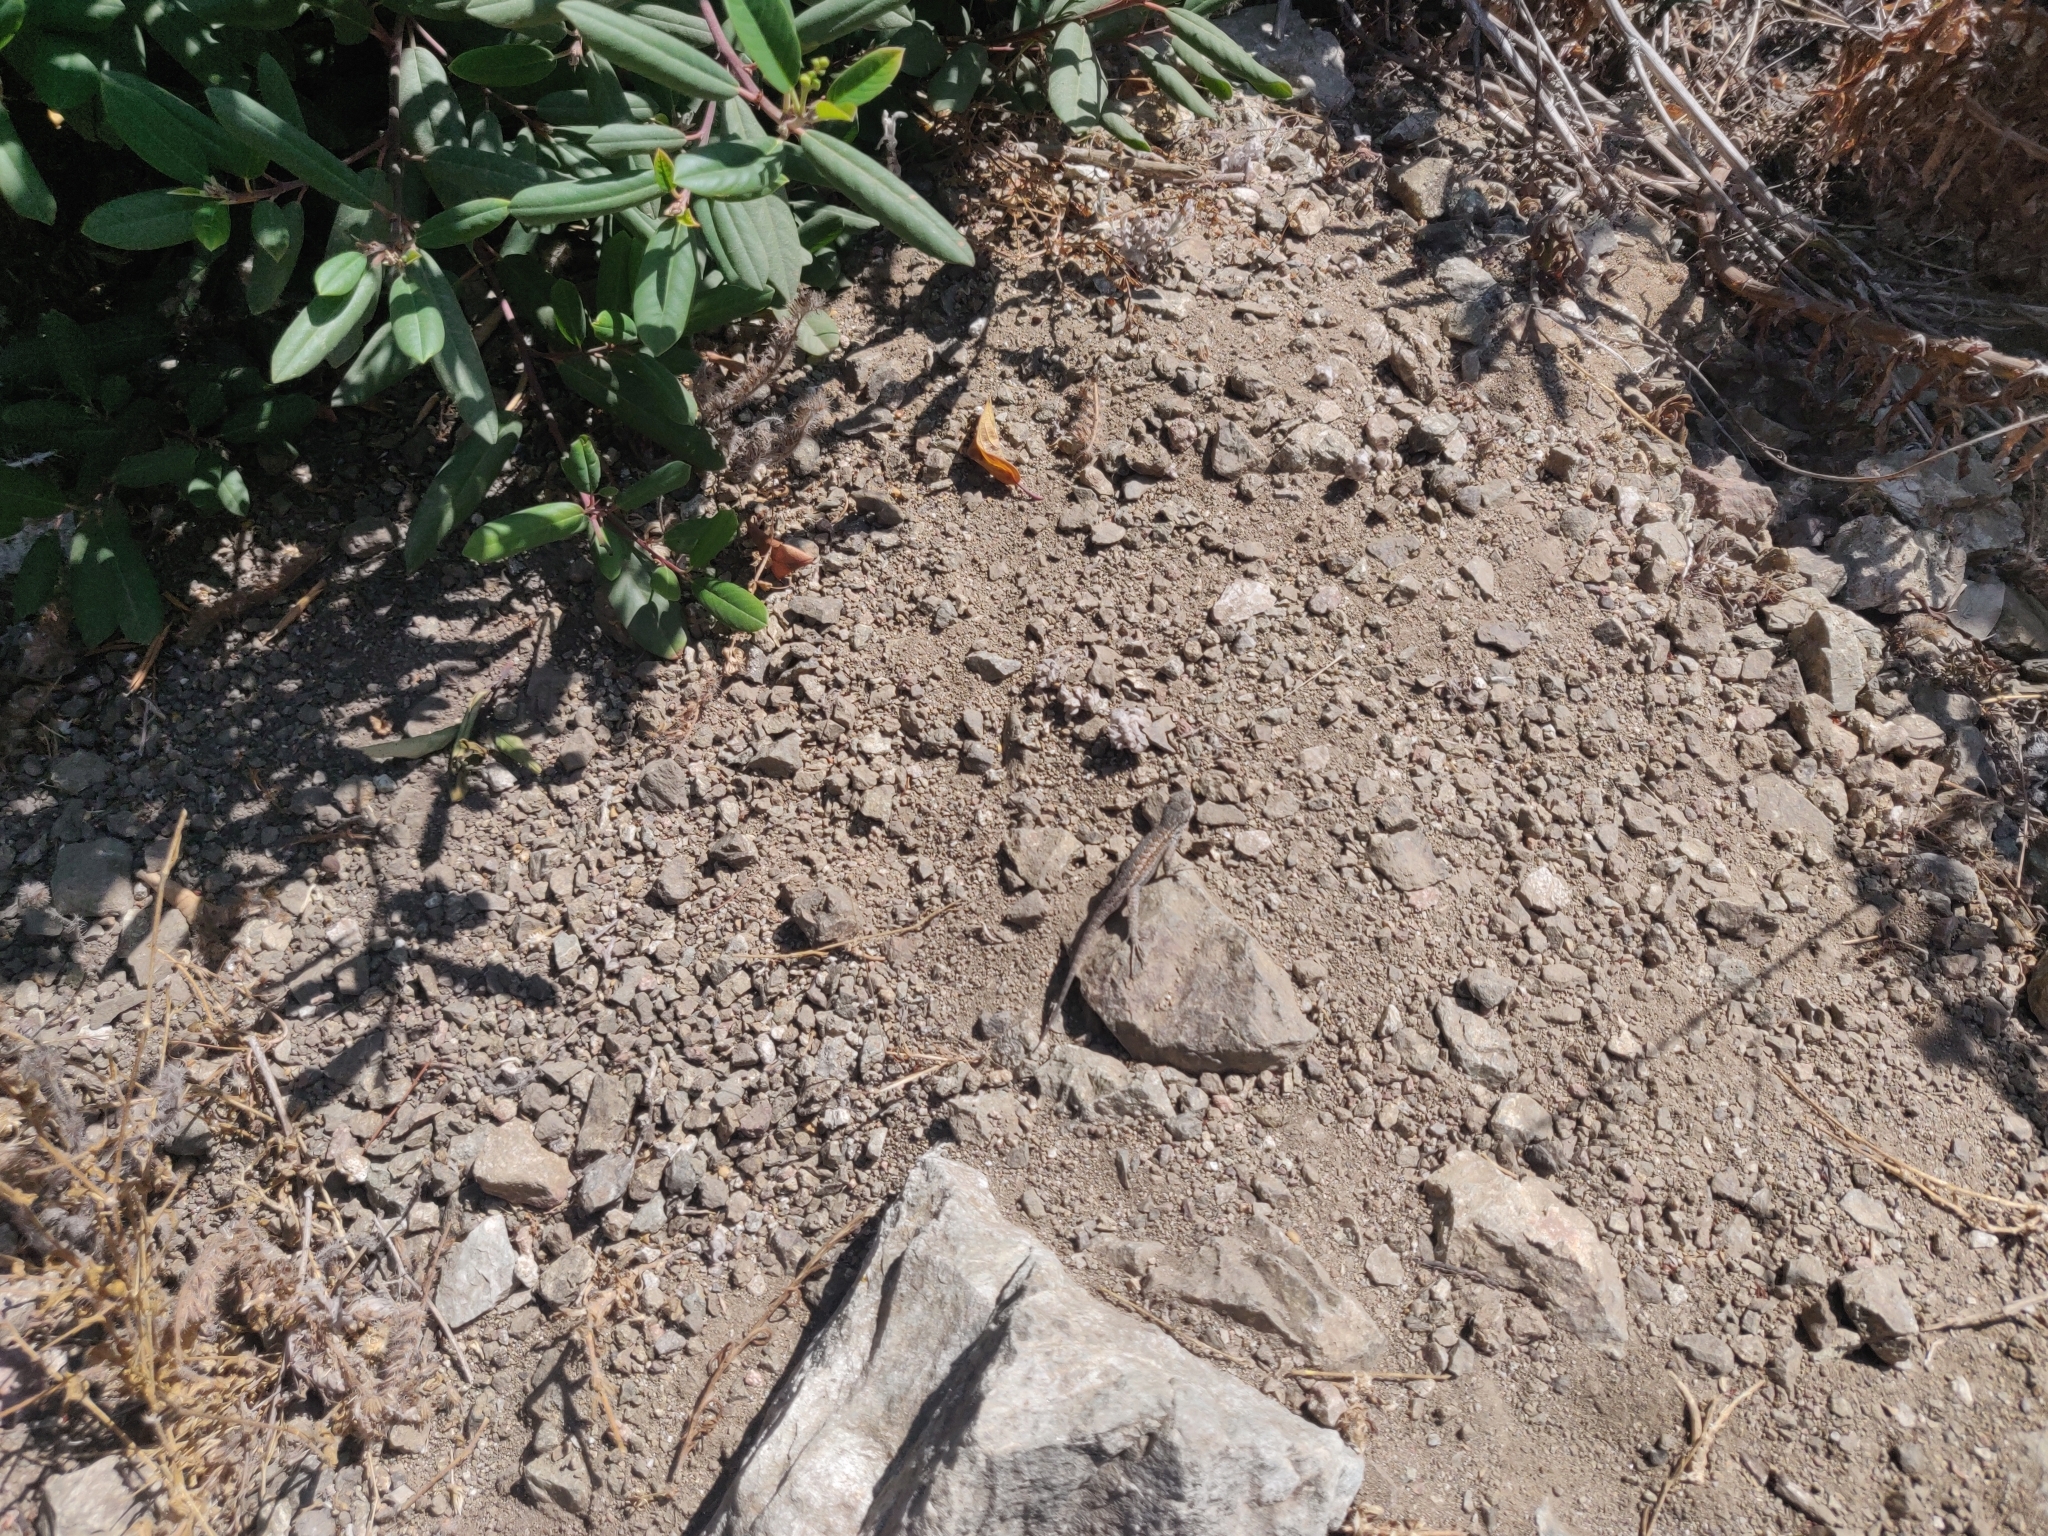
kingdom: Animalia
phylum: Chordata
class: Squamata
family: Phrynosomatidae
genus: Sceloporus
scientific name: Sceloporus occidentalis
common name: Western fence lizard
